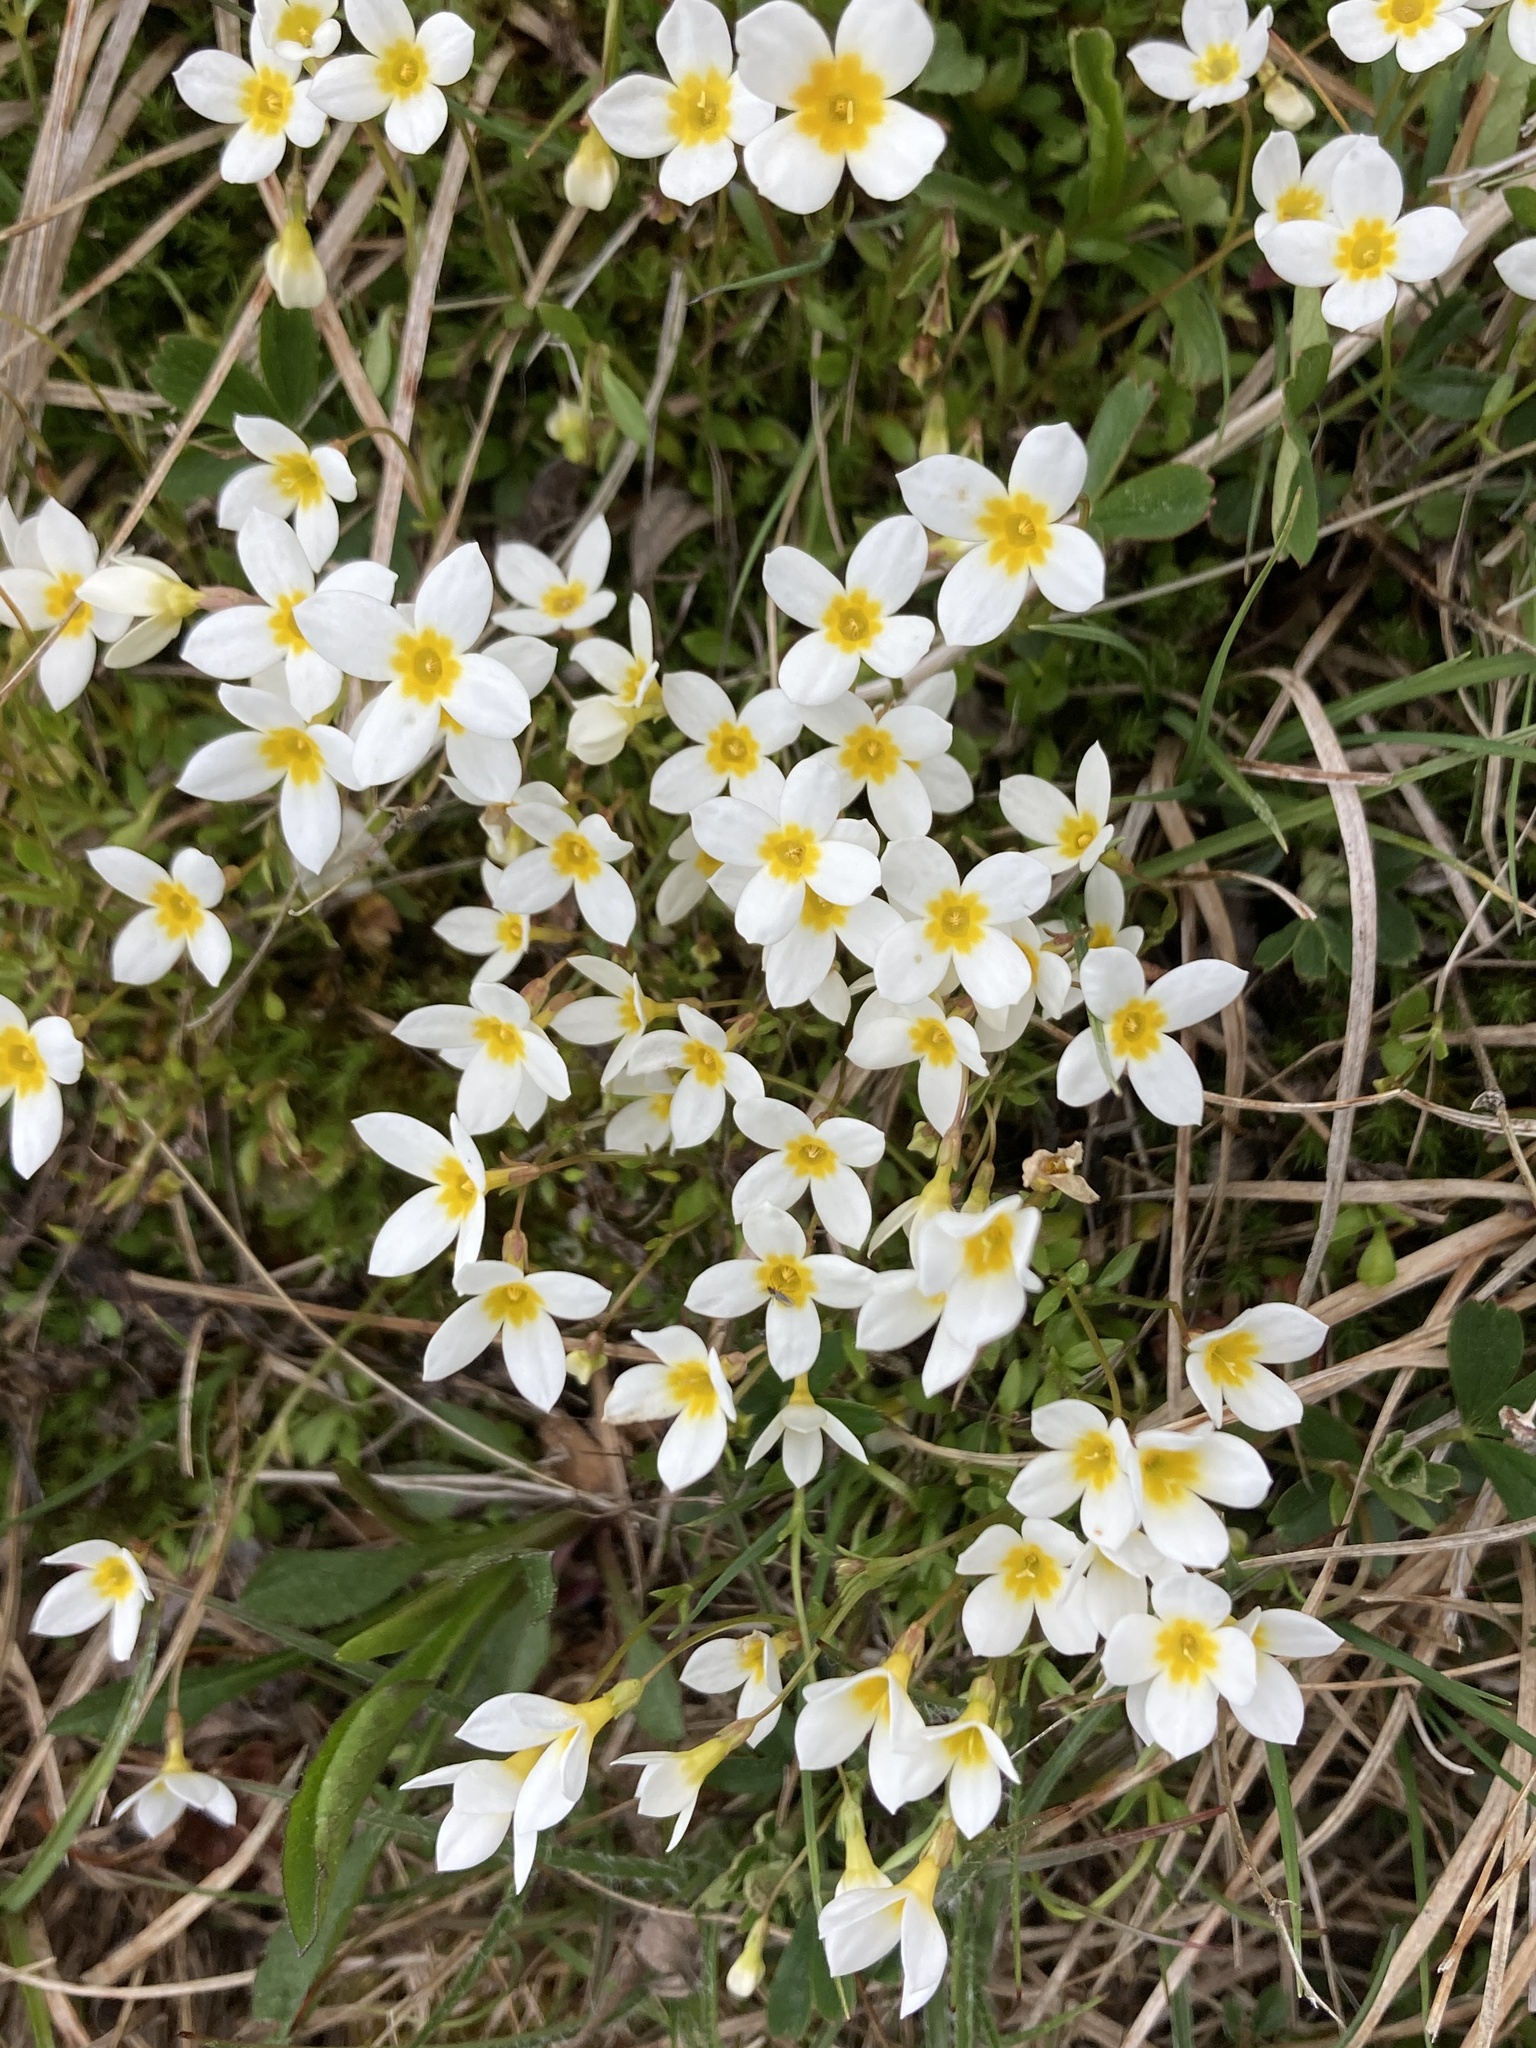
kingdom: Plantae
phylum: Tracheophyta
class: Magnoliopsida
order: Gentianales
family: Rubiaceae
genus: Houstonia
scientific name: Houstonia caerulea
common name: Bluets
